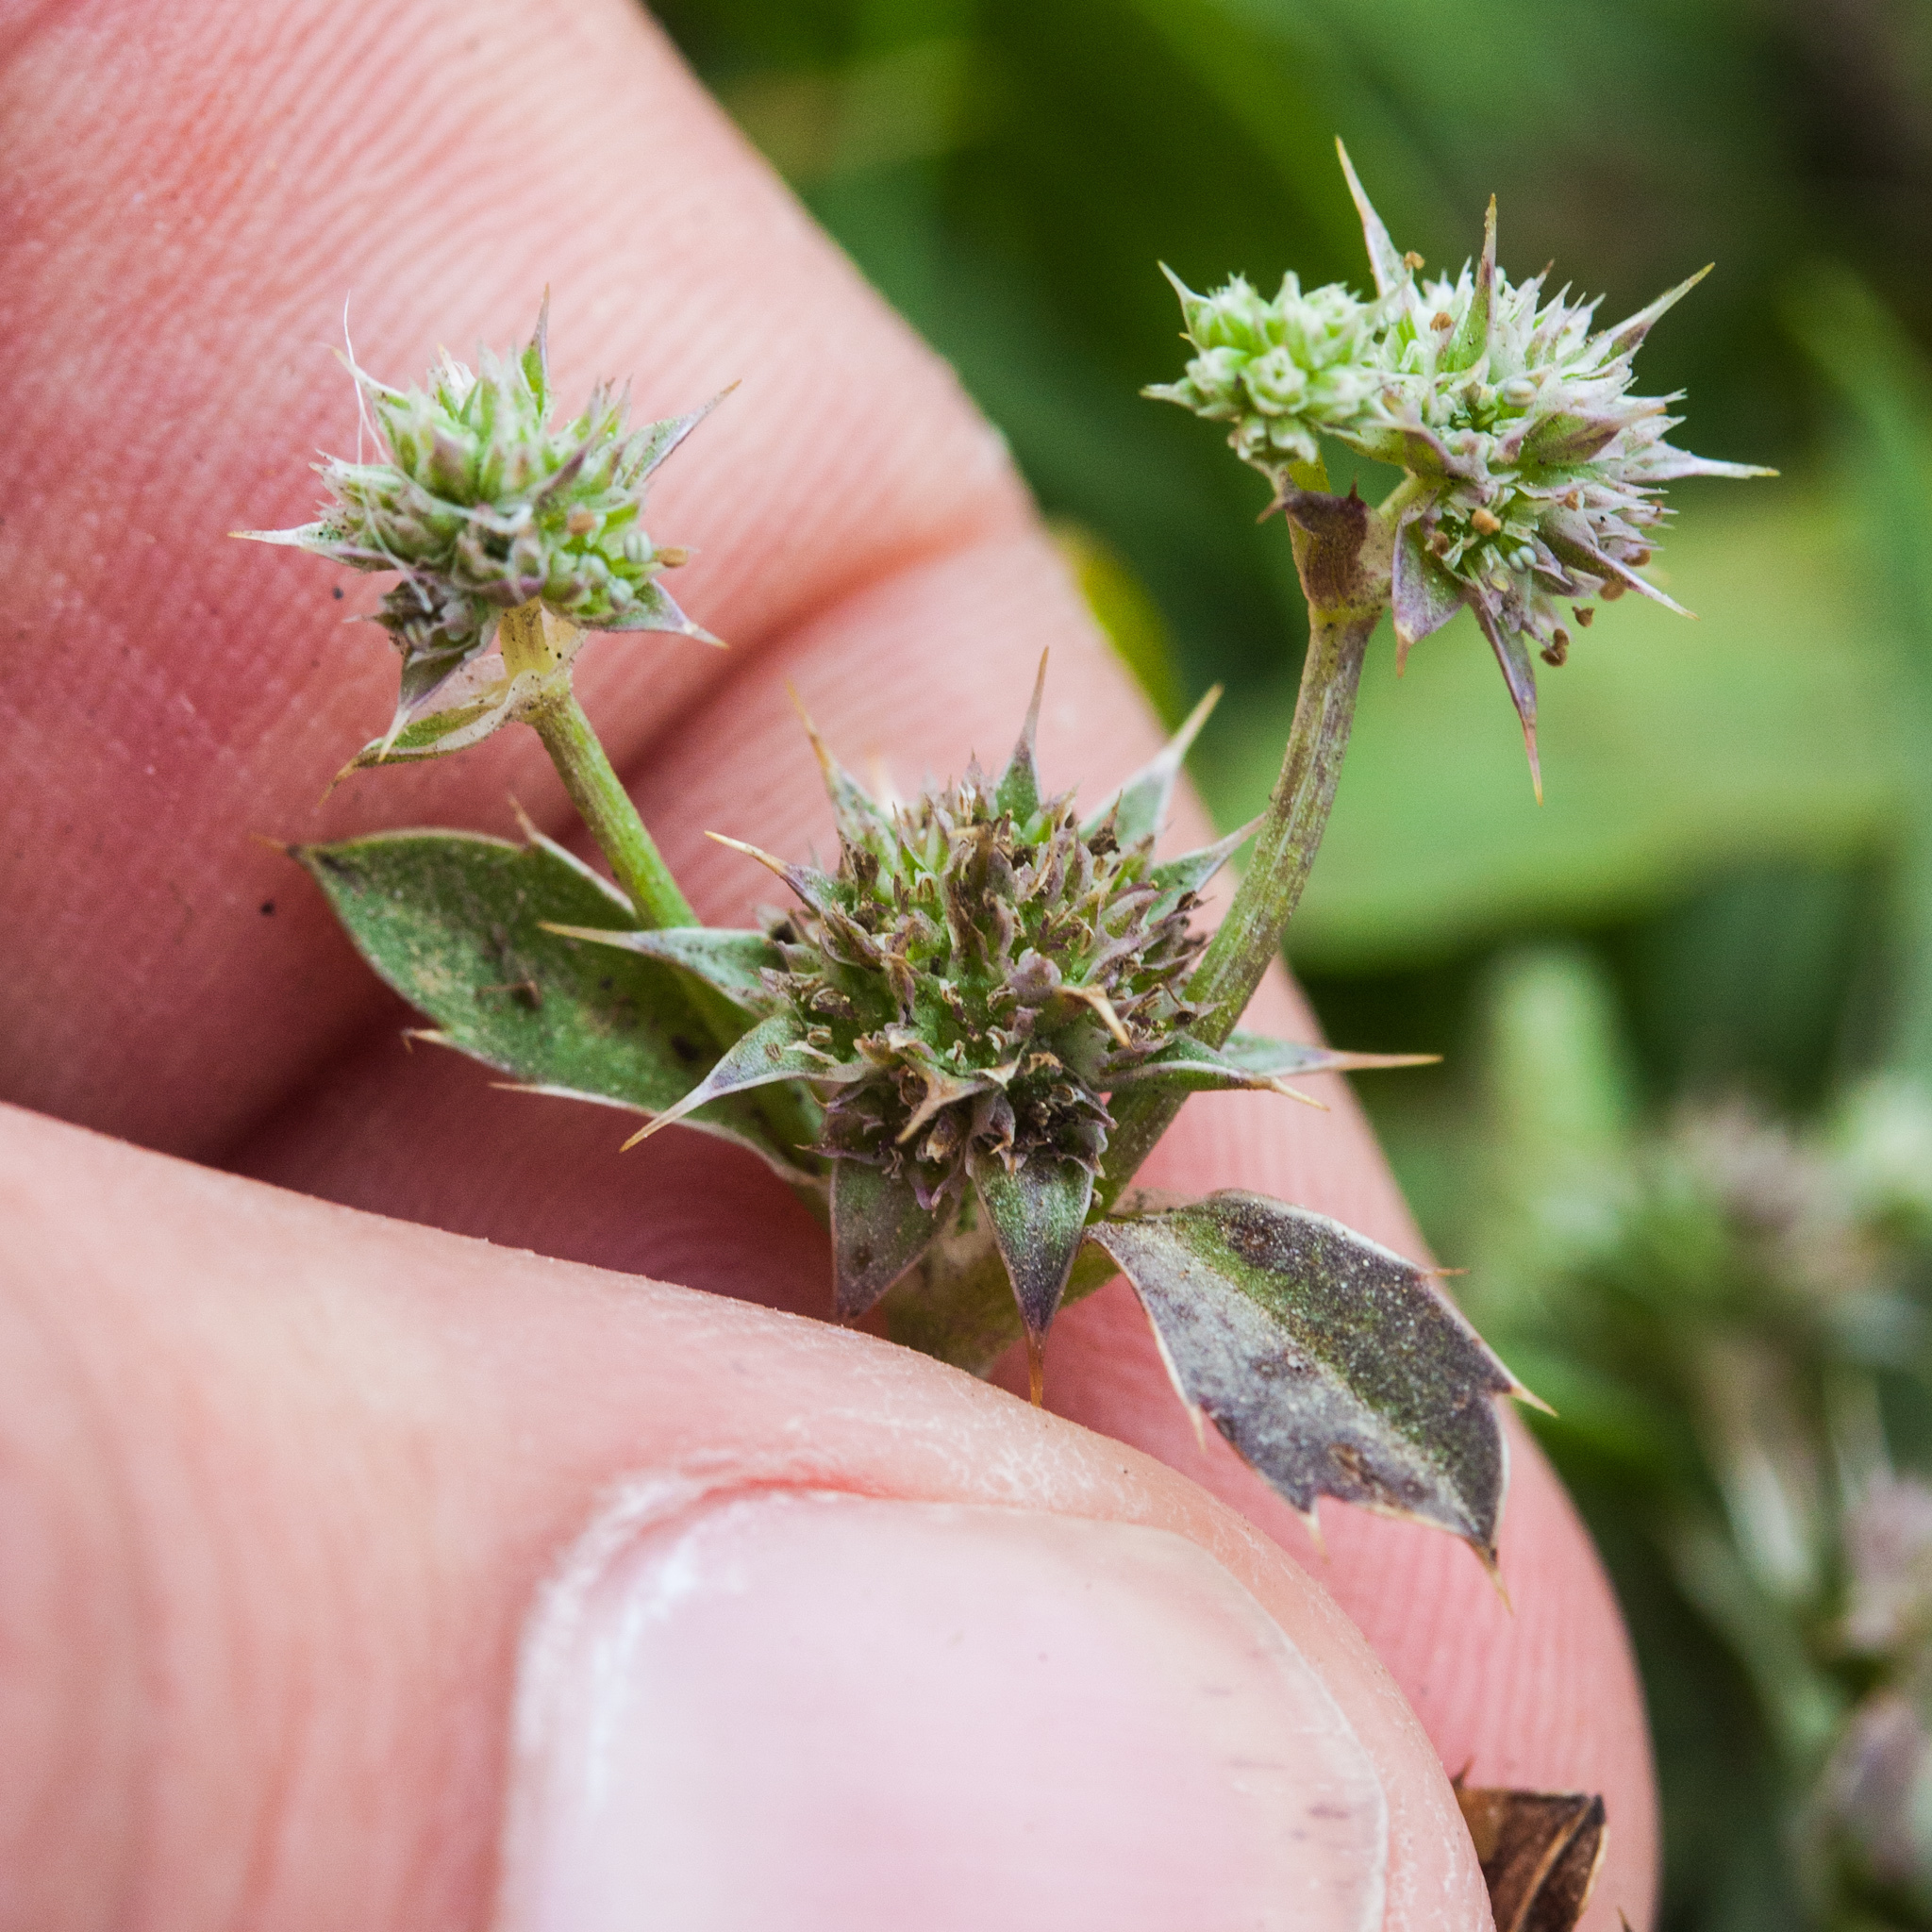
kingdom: Plantae
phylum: Tracheophyta
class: Magnoliopsida
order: Apiales
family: Apiaceae
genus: Eryngium
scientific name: Eryngium armatum
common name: Coyote thistle
